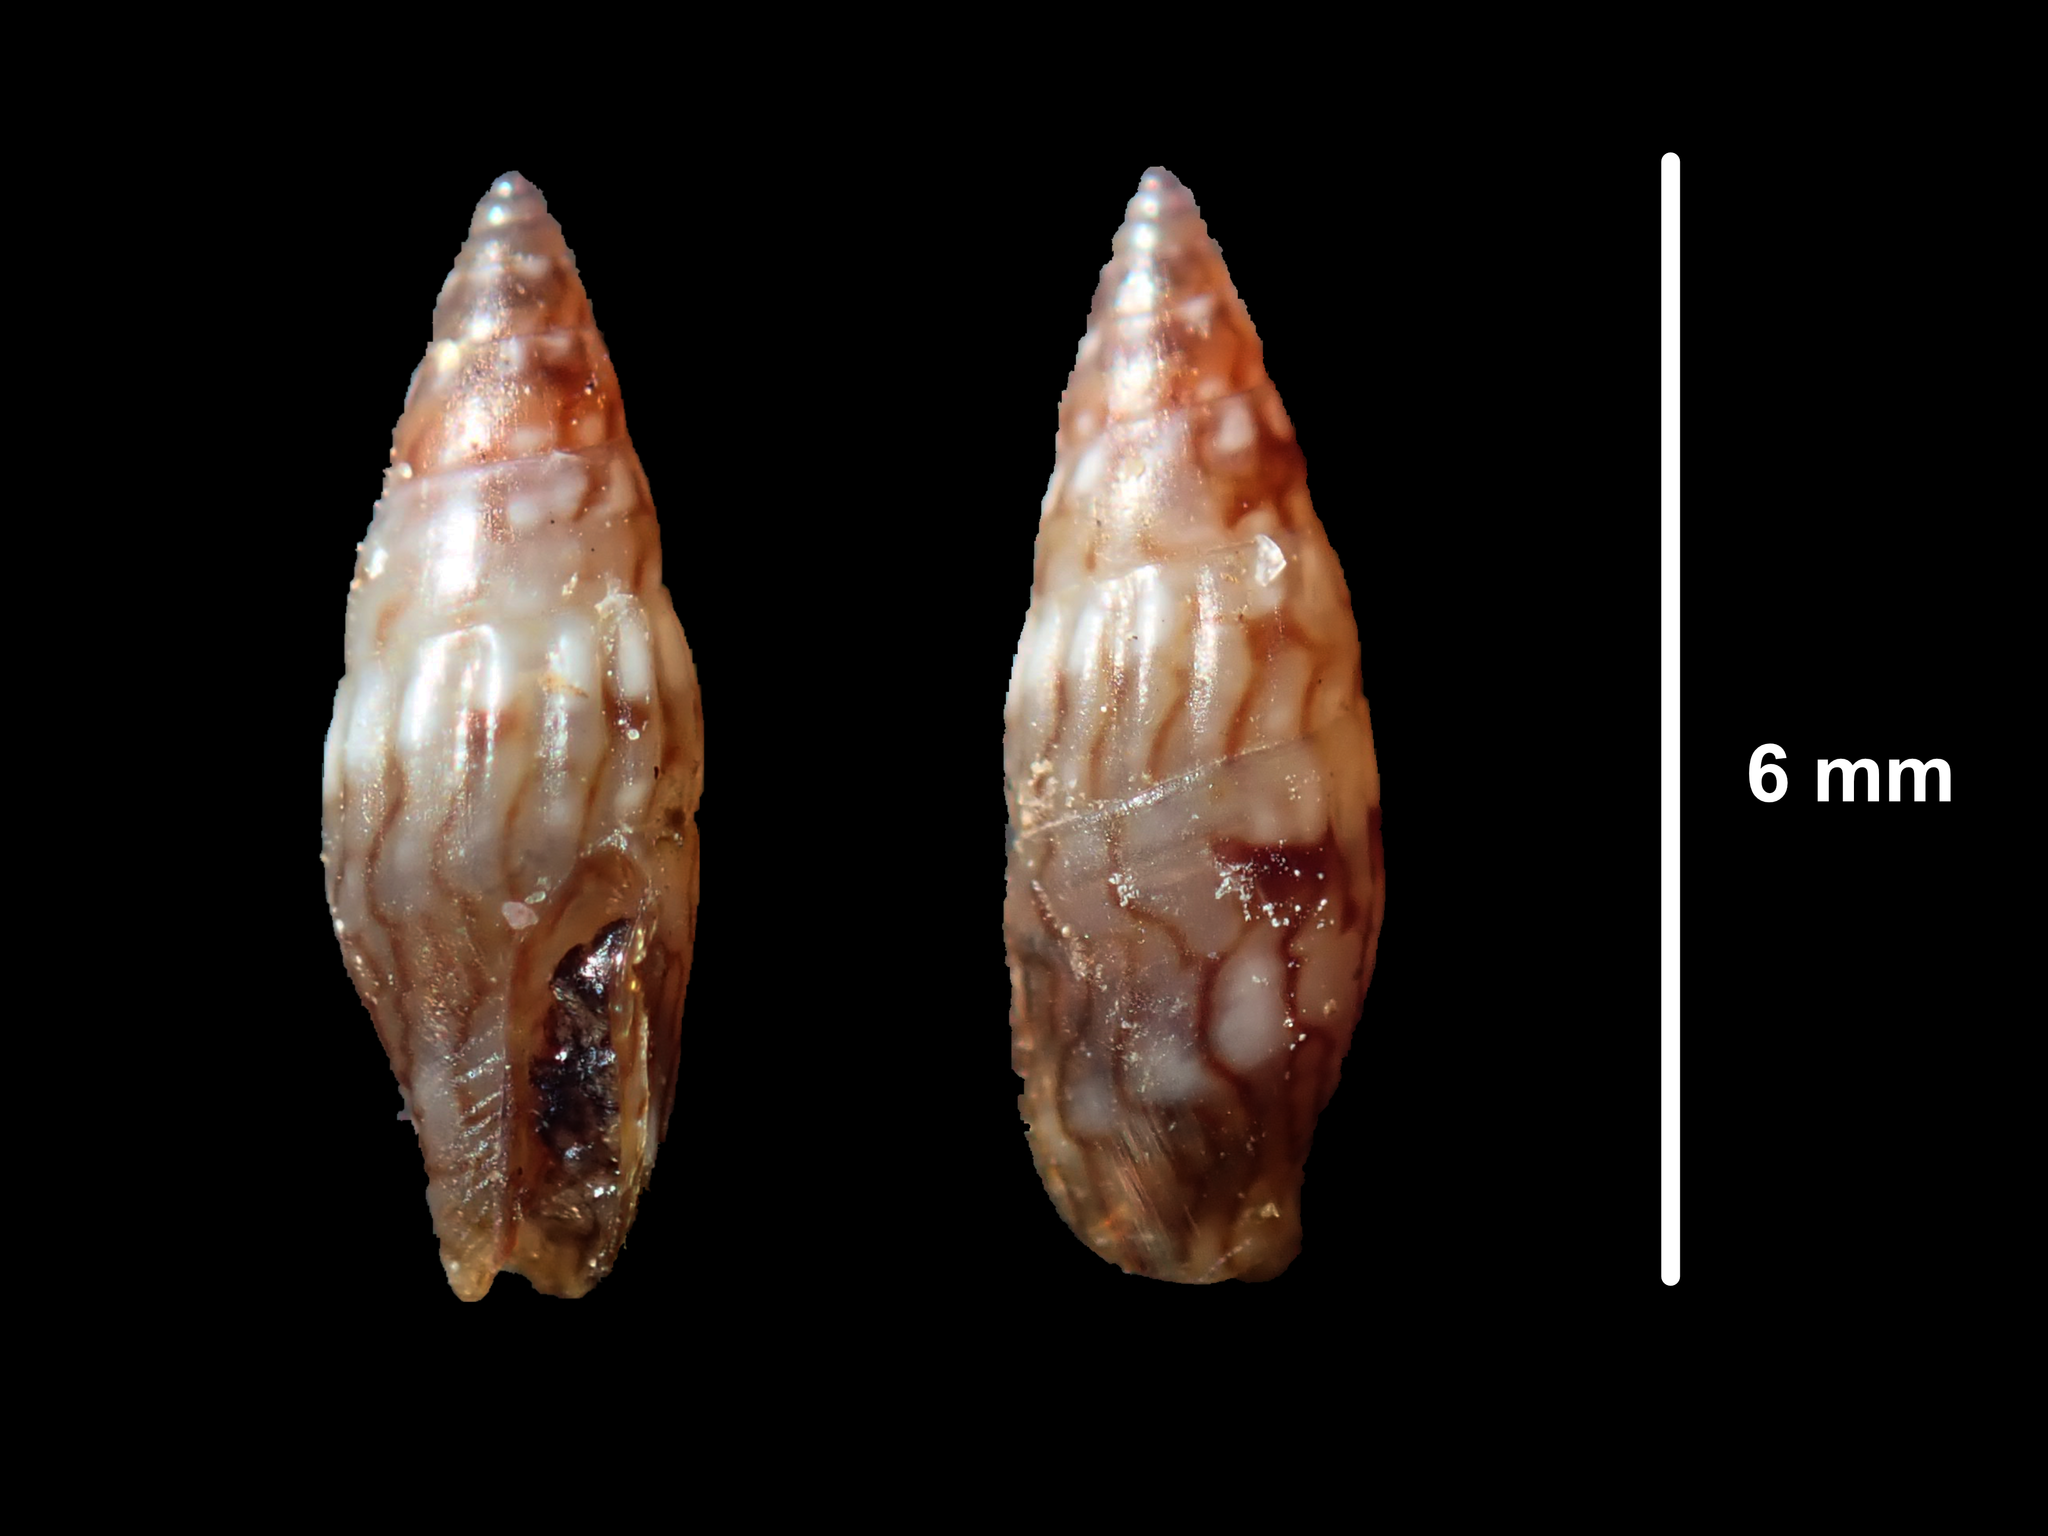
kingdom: Animalia
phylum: Mollusca
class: Gastropoda
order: Neogastropoda
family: Columbellidae
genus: Anachis
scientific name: Anachis atkinsoni
